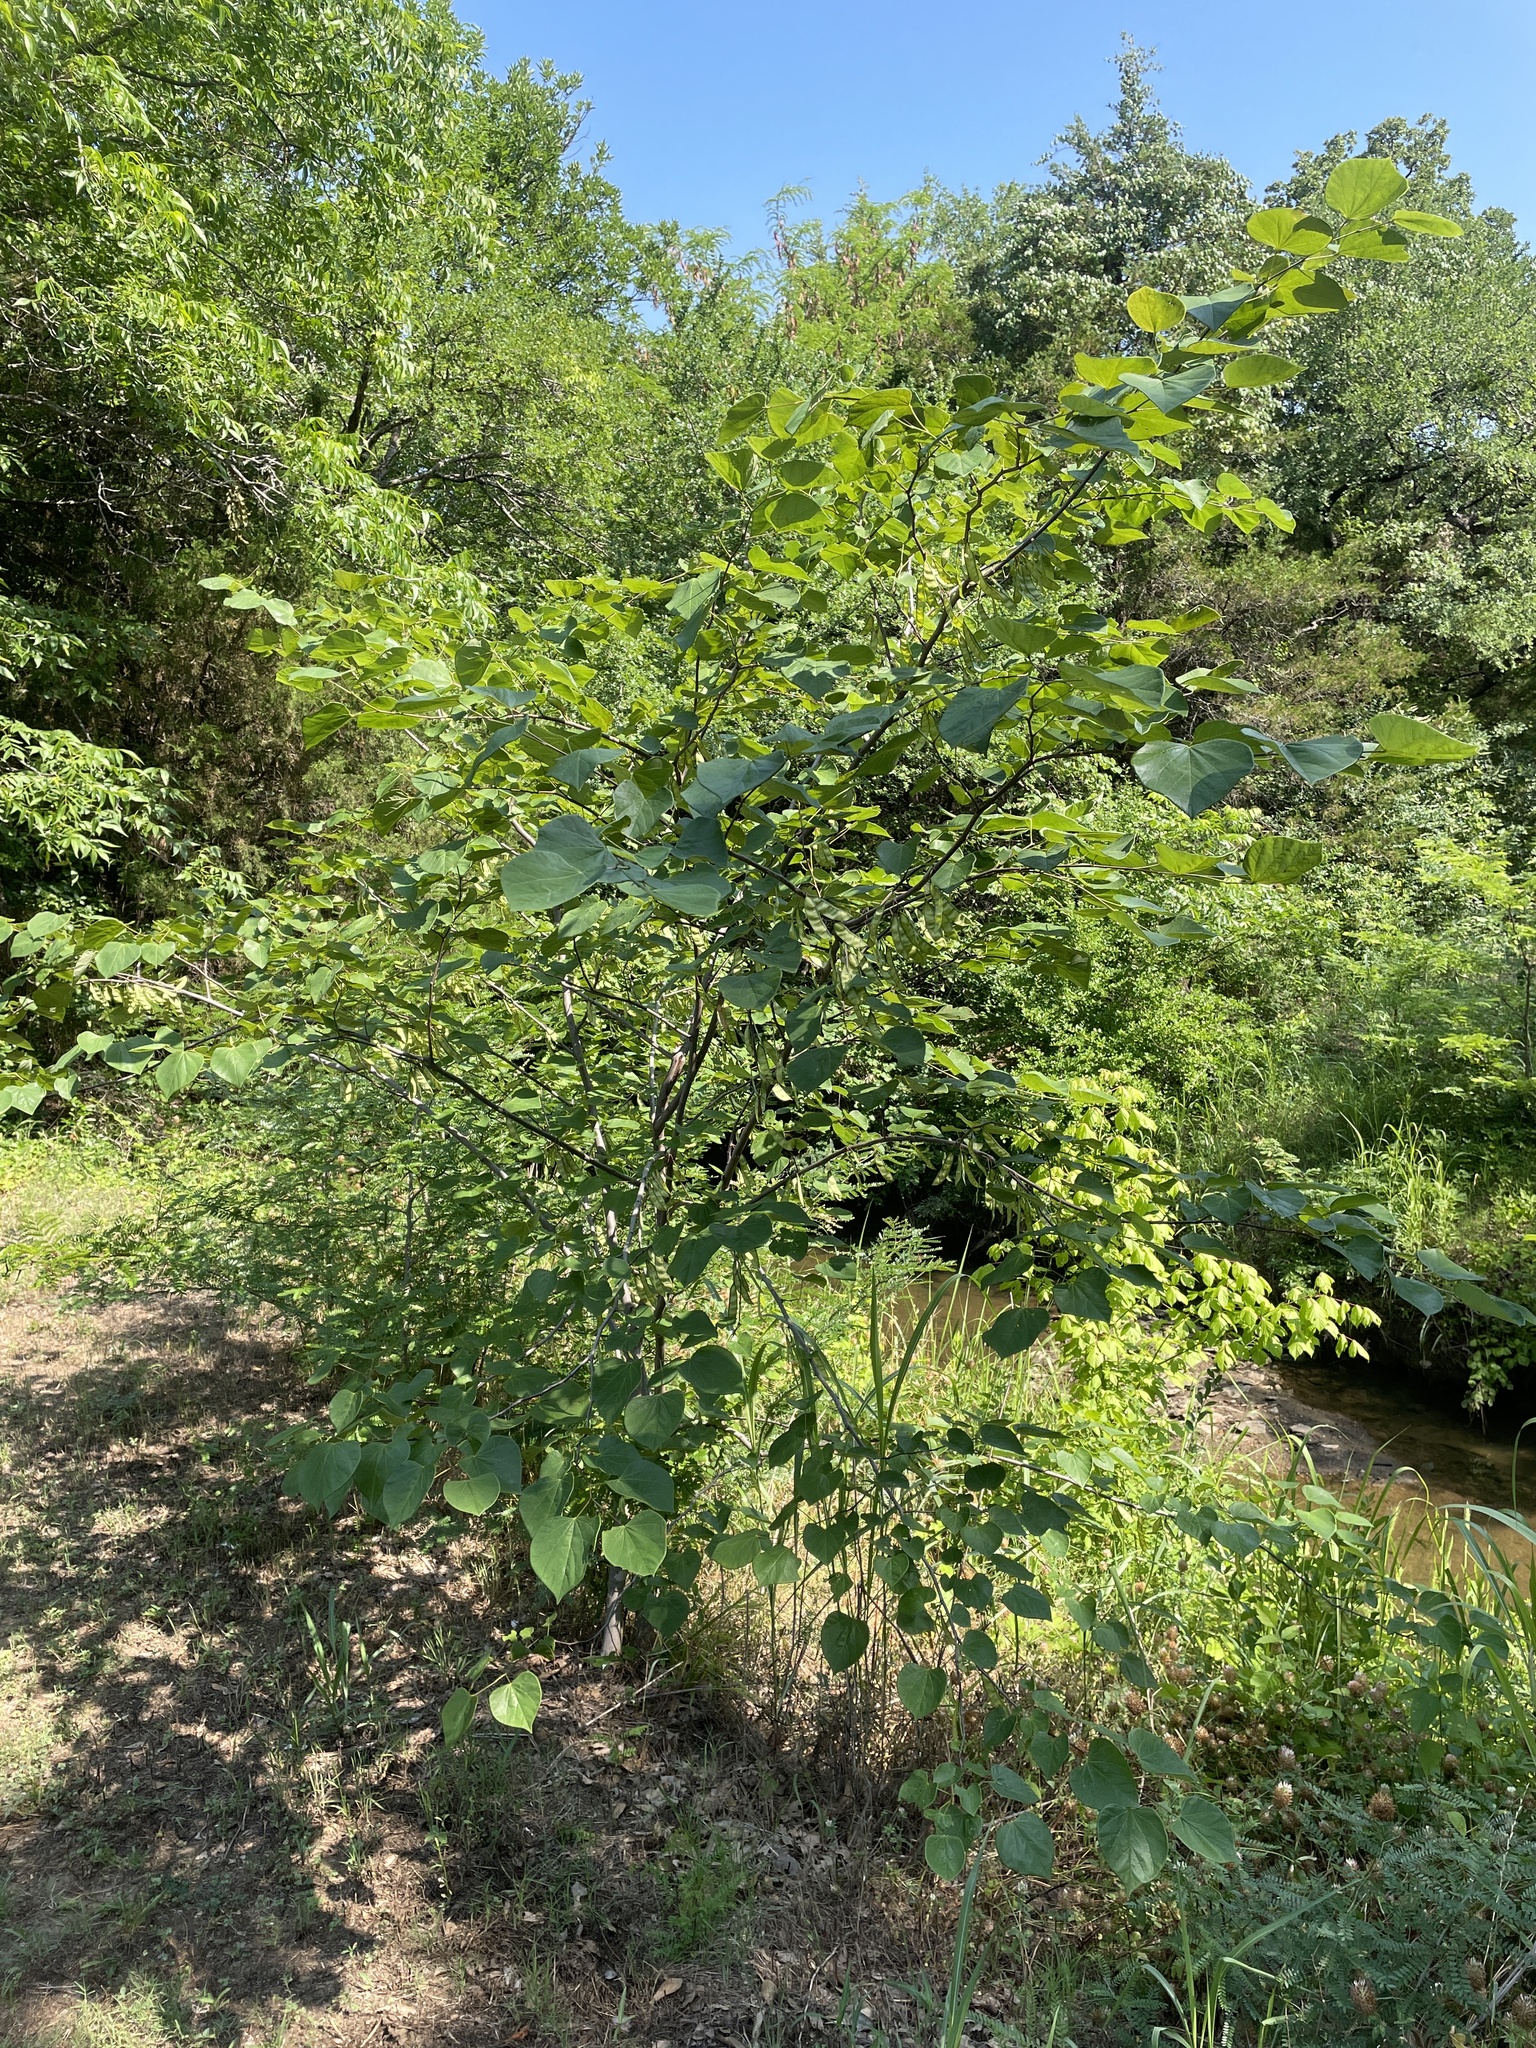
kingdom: Plantae
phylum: Tracheophyta
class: Magnoliopsida
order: Fabales
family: Fabaceae
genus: Cercis
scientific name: Cercis canadensis
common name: Eastern redbud
